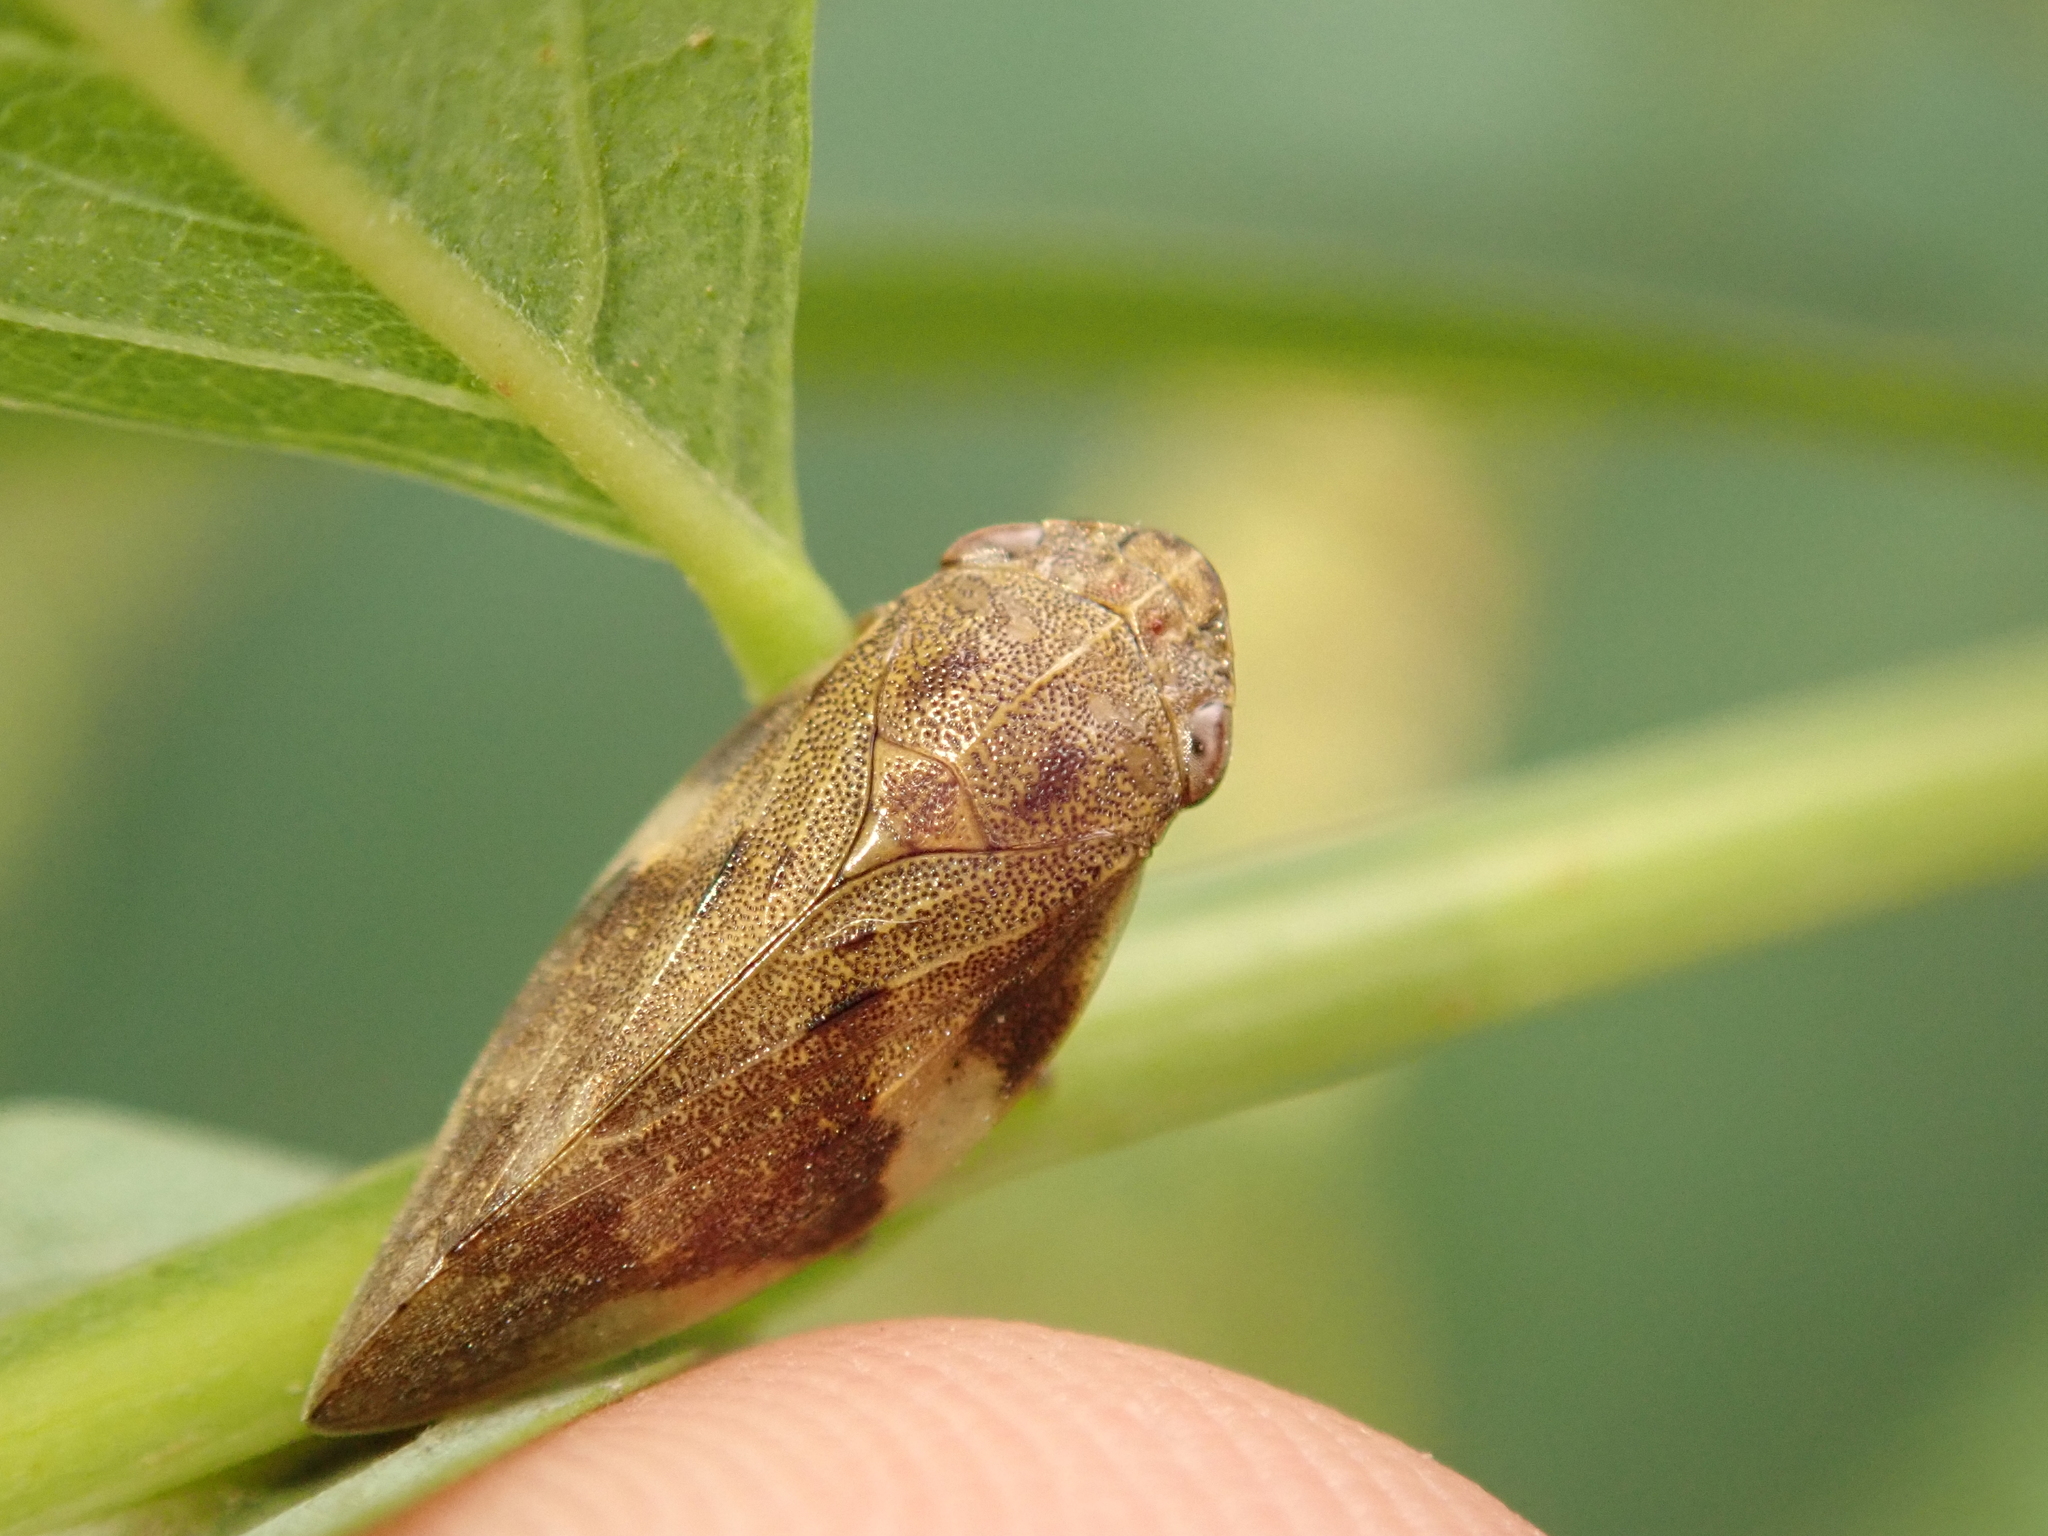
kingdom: Animalia
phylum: Arthropoda
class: Insecta
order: Hemiptera
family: Aphrophoridae
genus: Aphrophora
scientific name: Aphrophora alni
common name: European alder spittlebug
